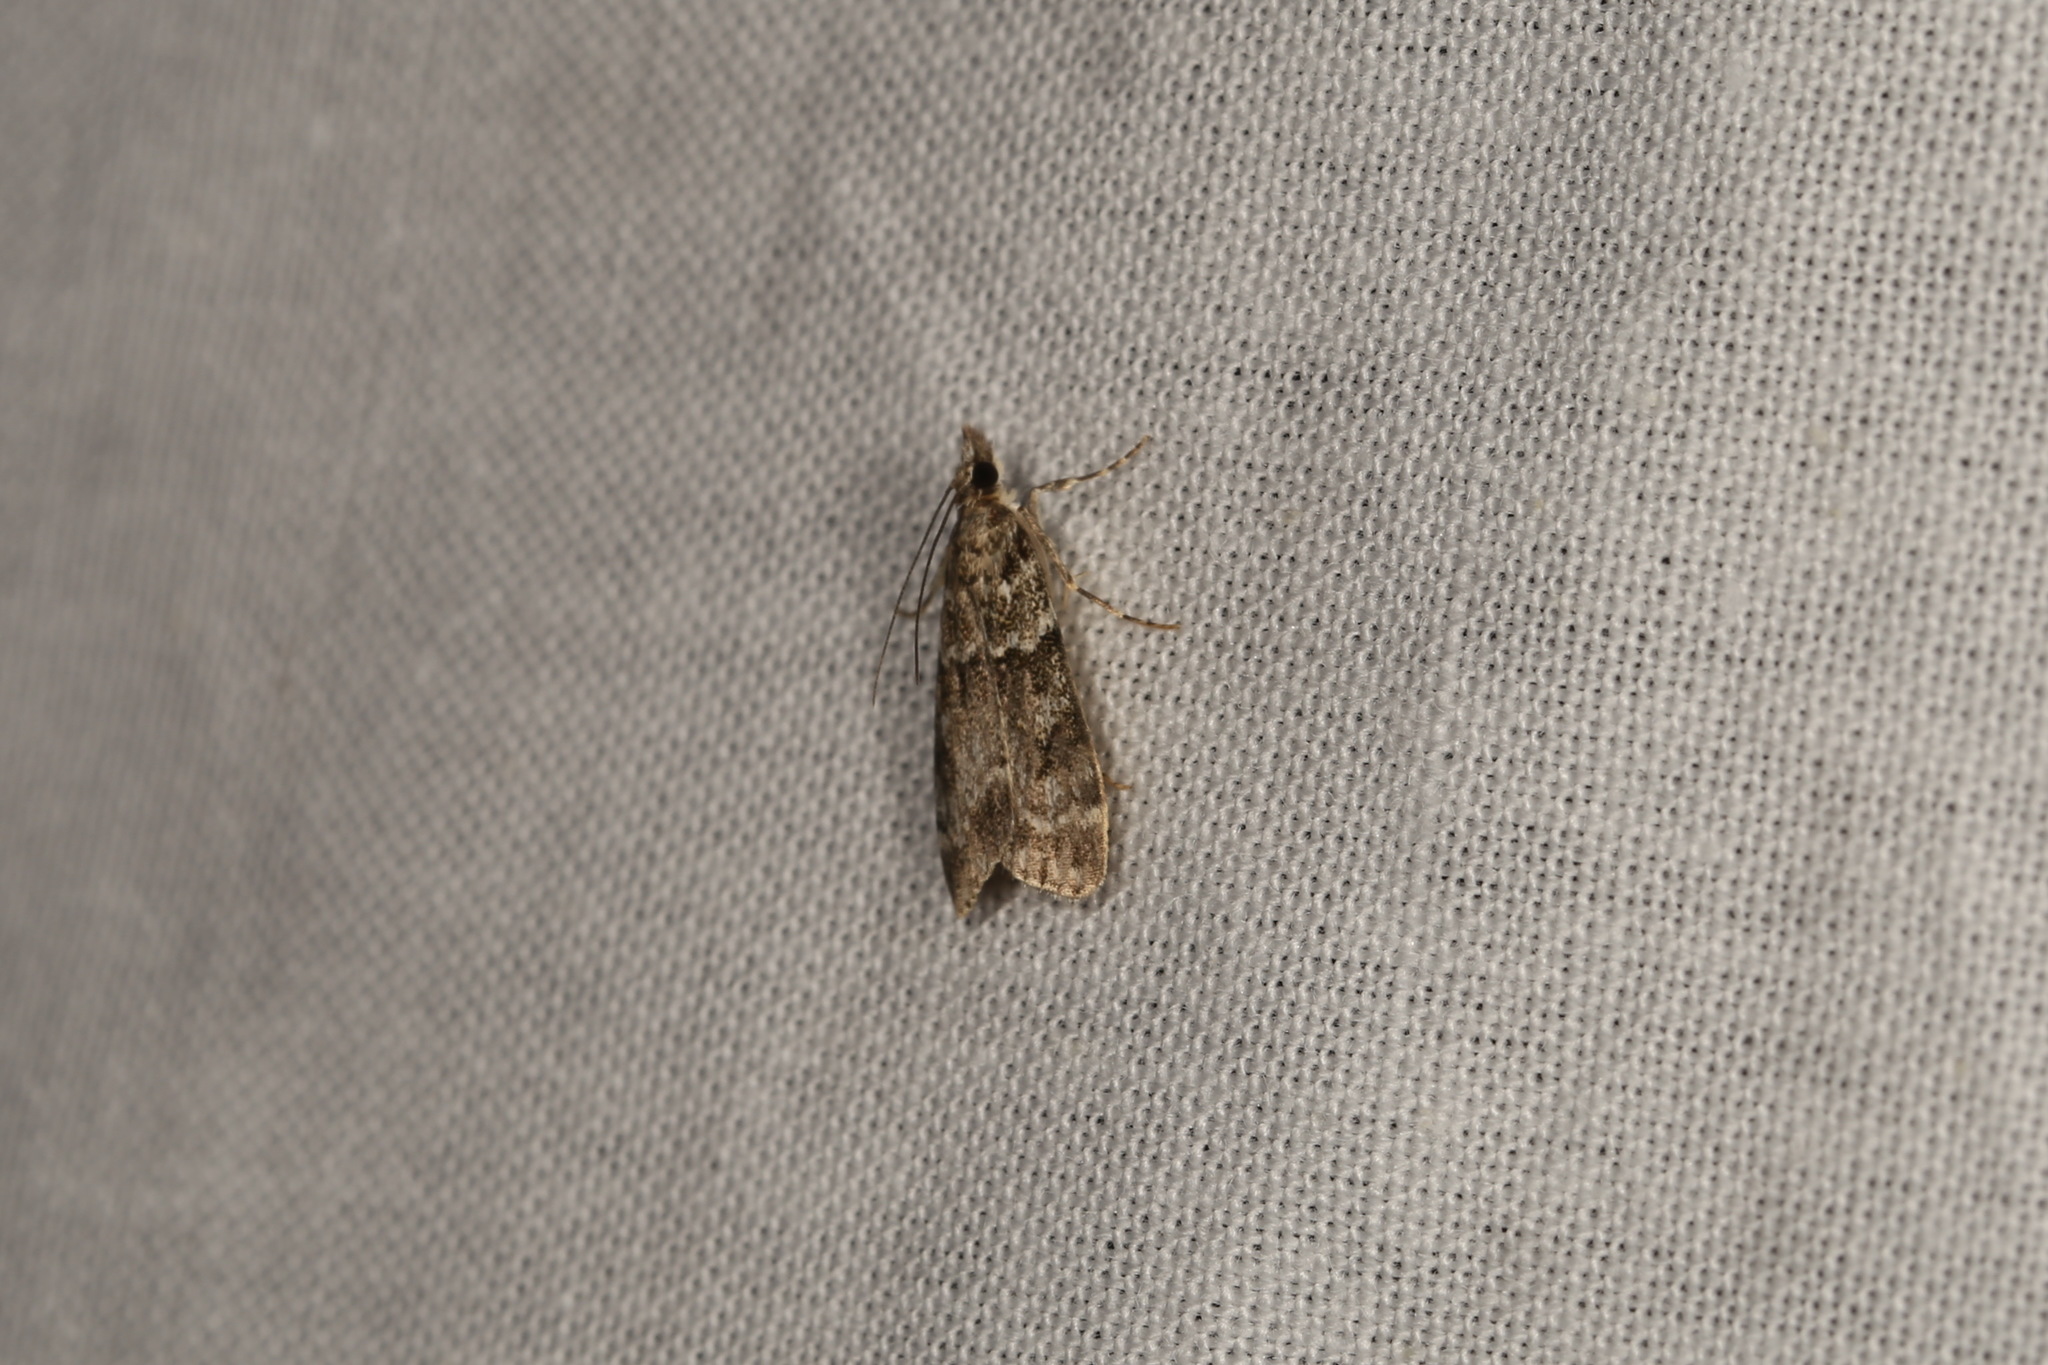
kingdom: Animalia
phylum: Arthropoda
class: Insecta
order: Lepidoptera
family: Crambidae
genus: Eudonia
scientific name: Eudonia mercurella
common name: Small grey
